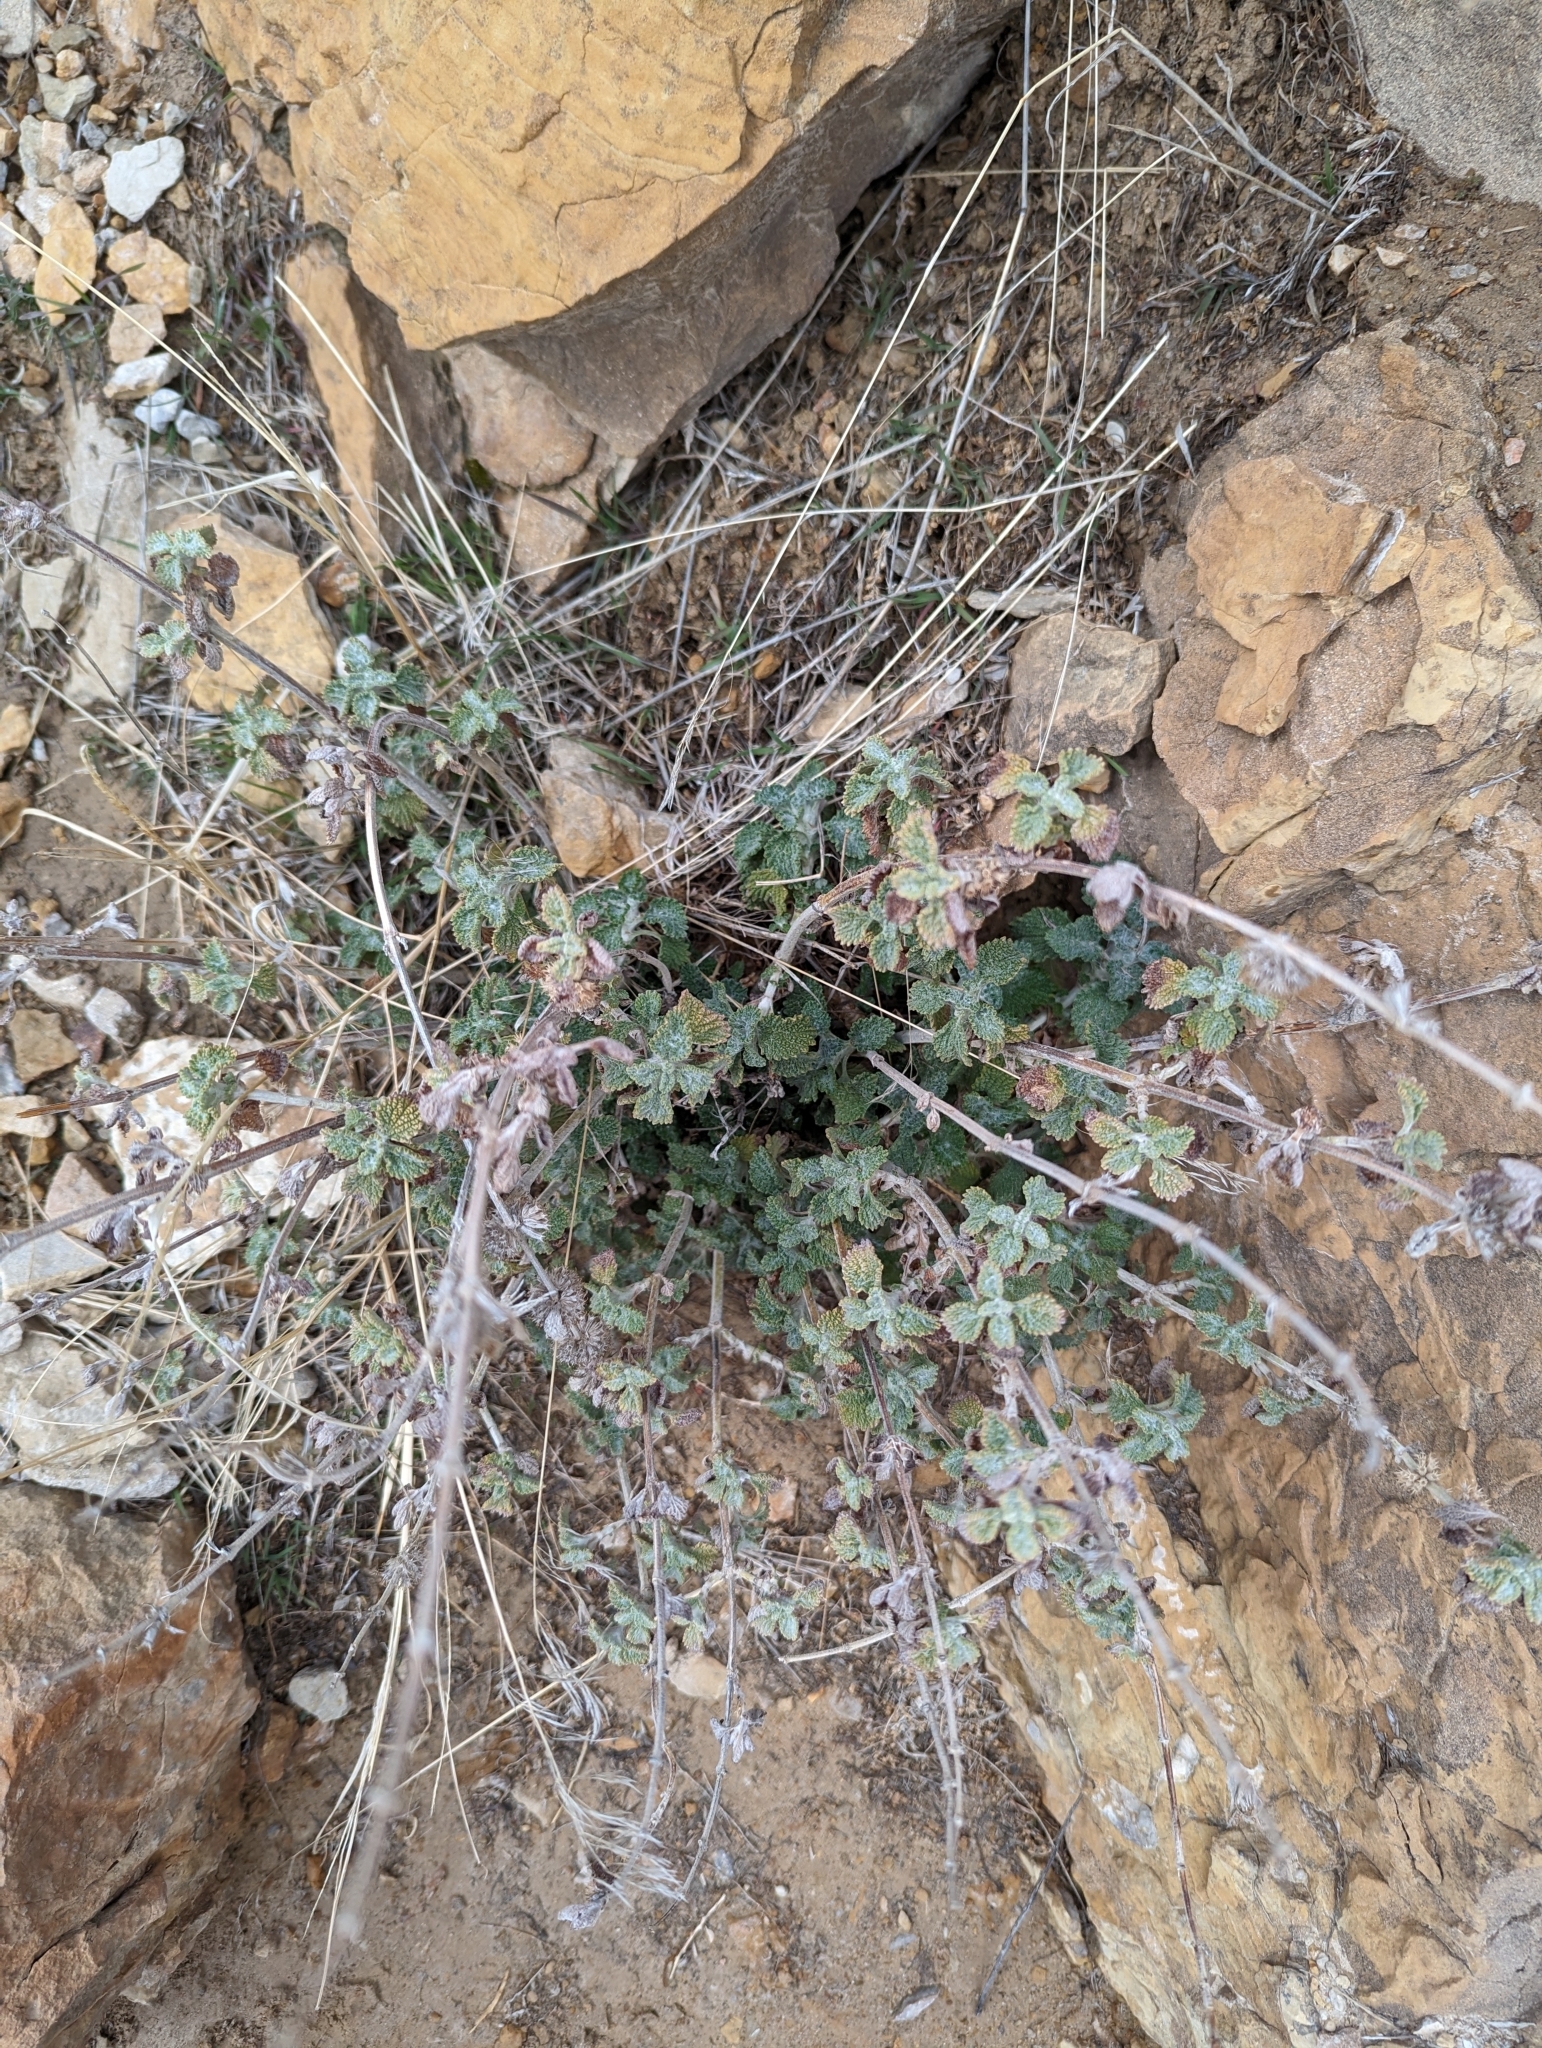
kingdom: Plantae
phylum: Tracheophyta
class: Magnoliopsida
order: Lamiales
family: Lamiaceae
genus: Marrubium
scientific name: Marrubium vulgare
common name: Horehound
